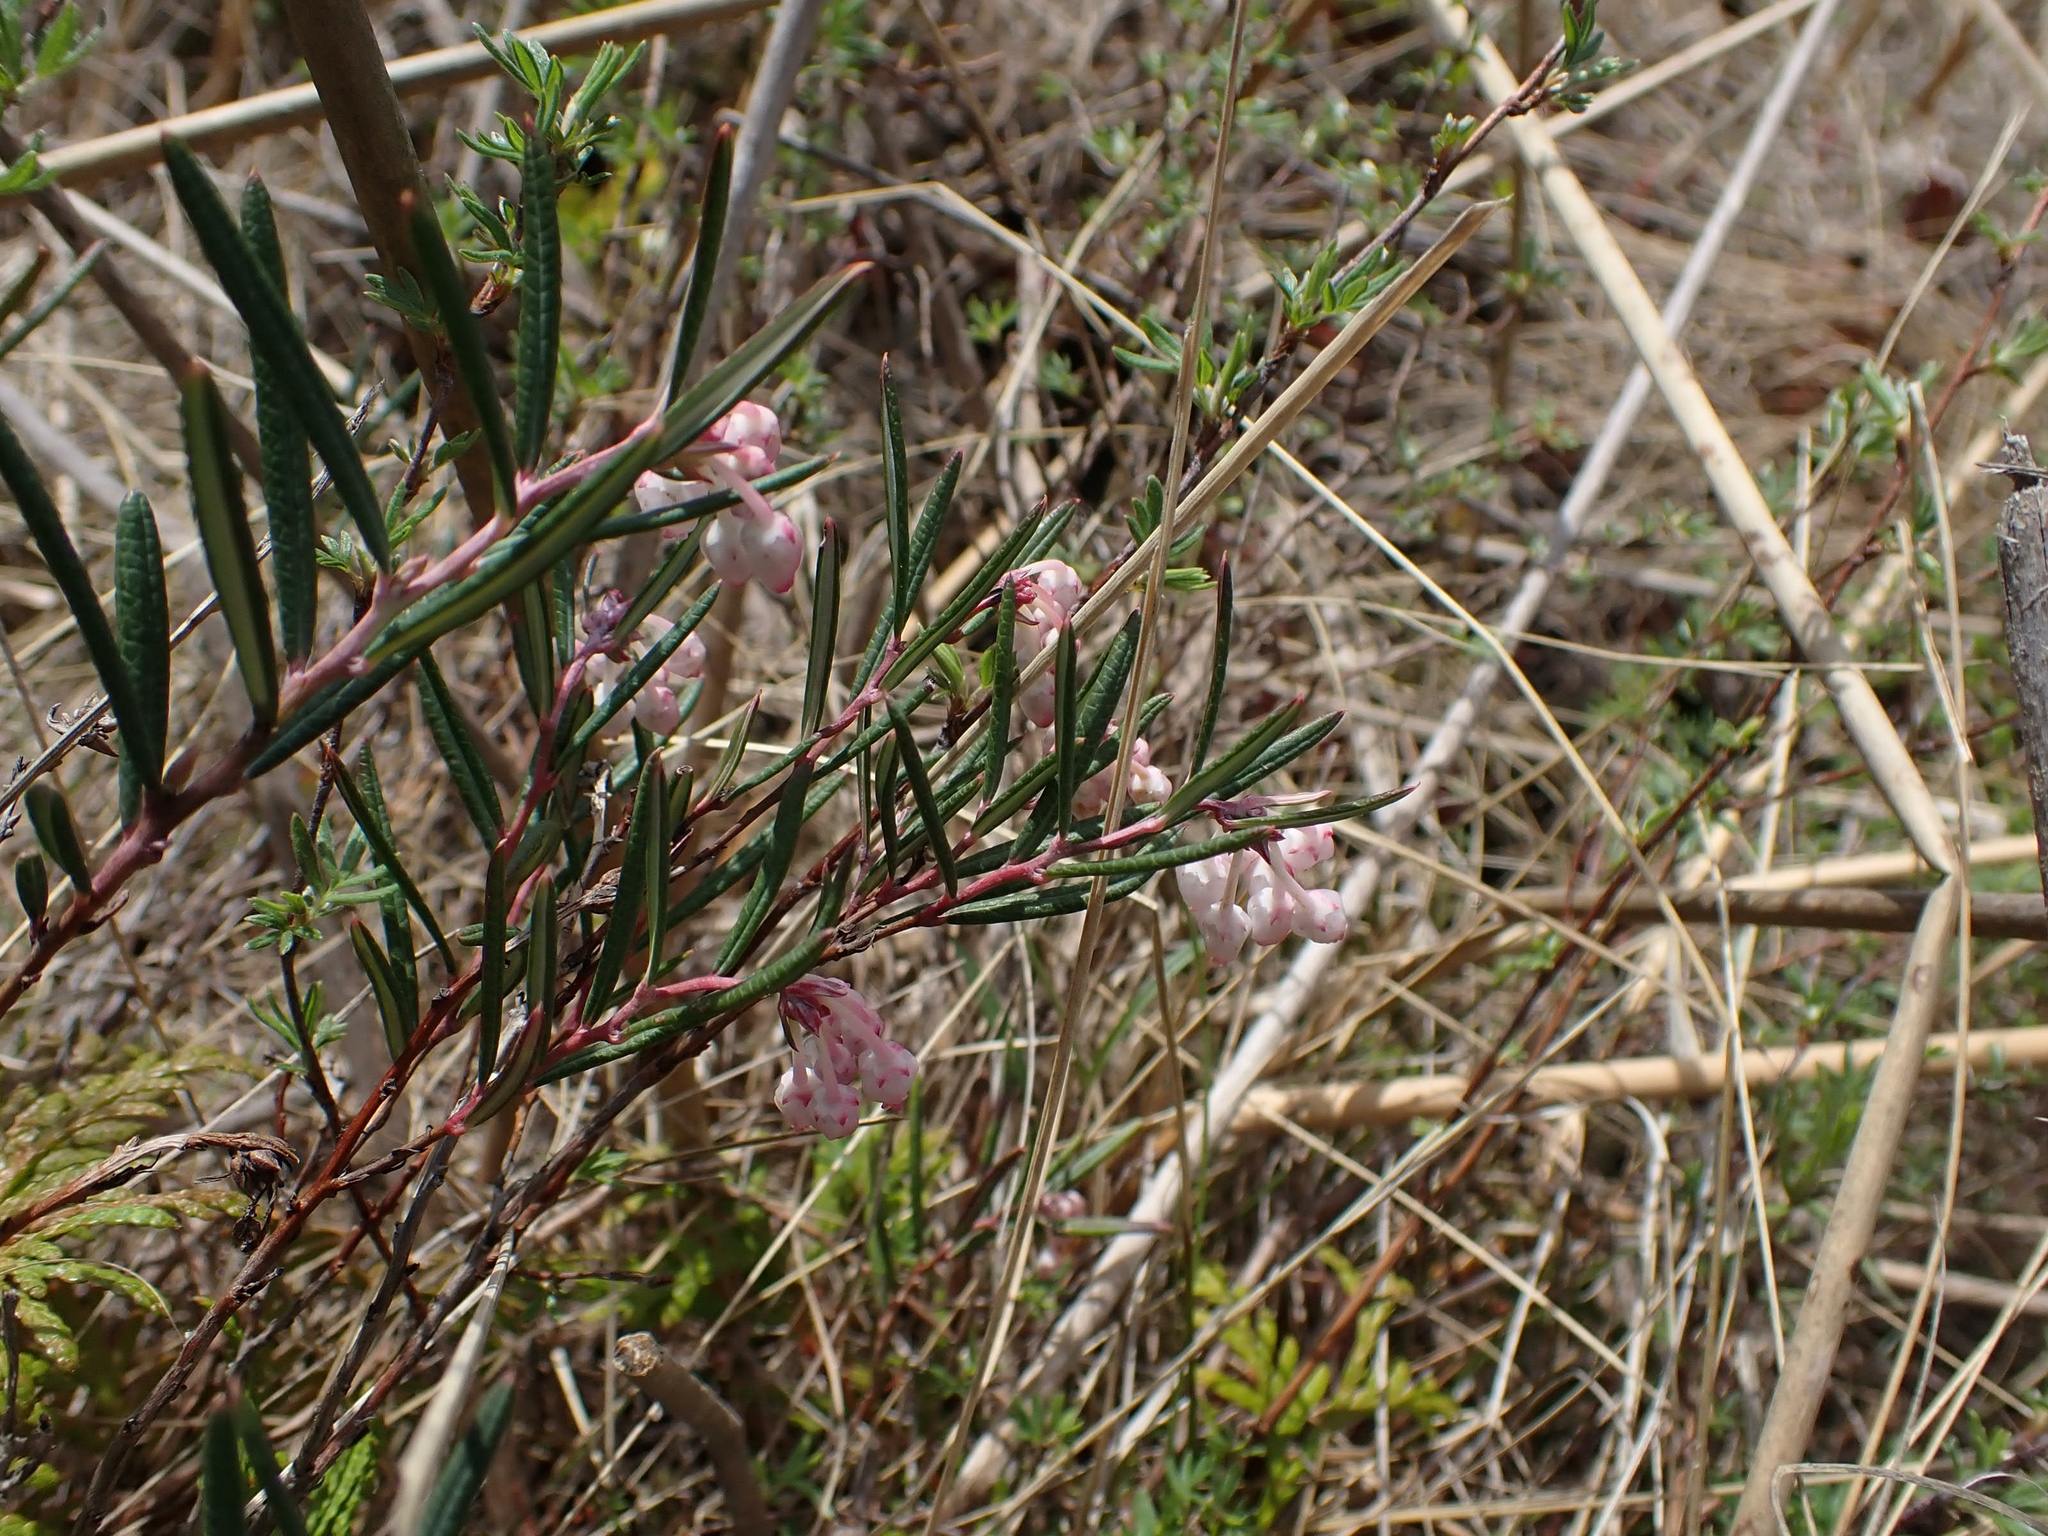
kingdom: Plantae
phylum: Tracheophyta
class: Magnoliopsida
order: Ericales
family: Ericaceae
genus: Andromeda
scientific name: Andromeda polifolia
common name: Bog-rosemary
